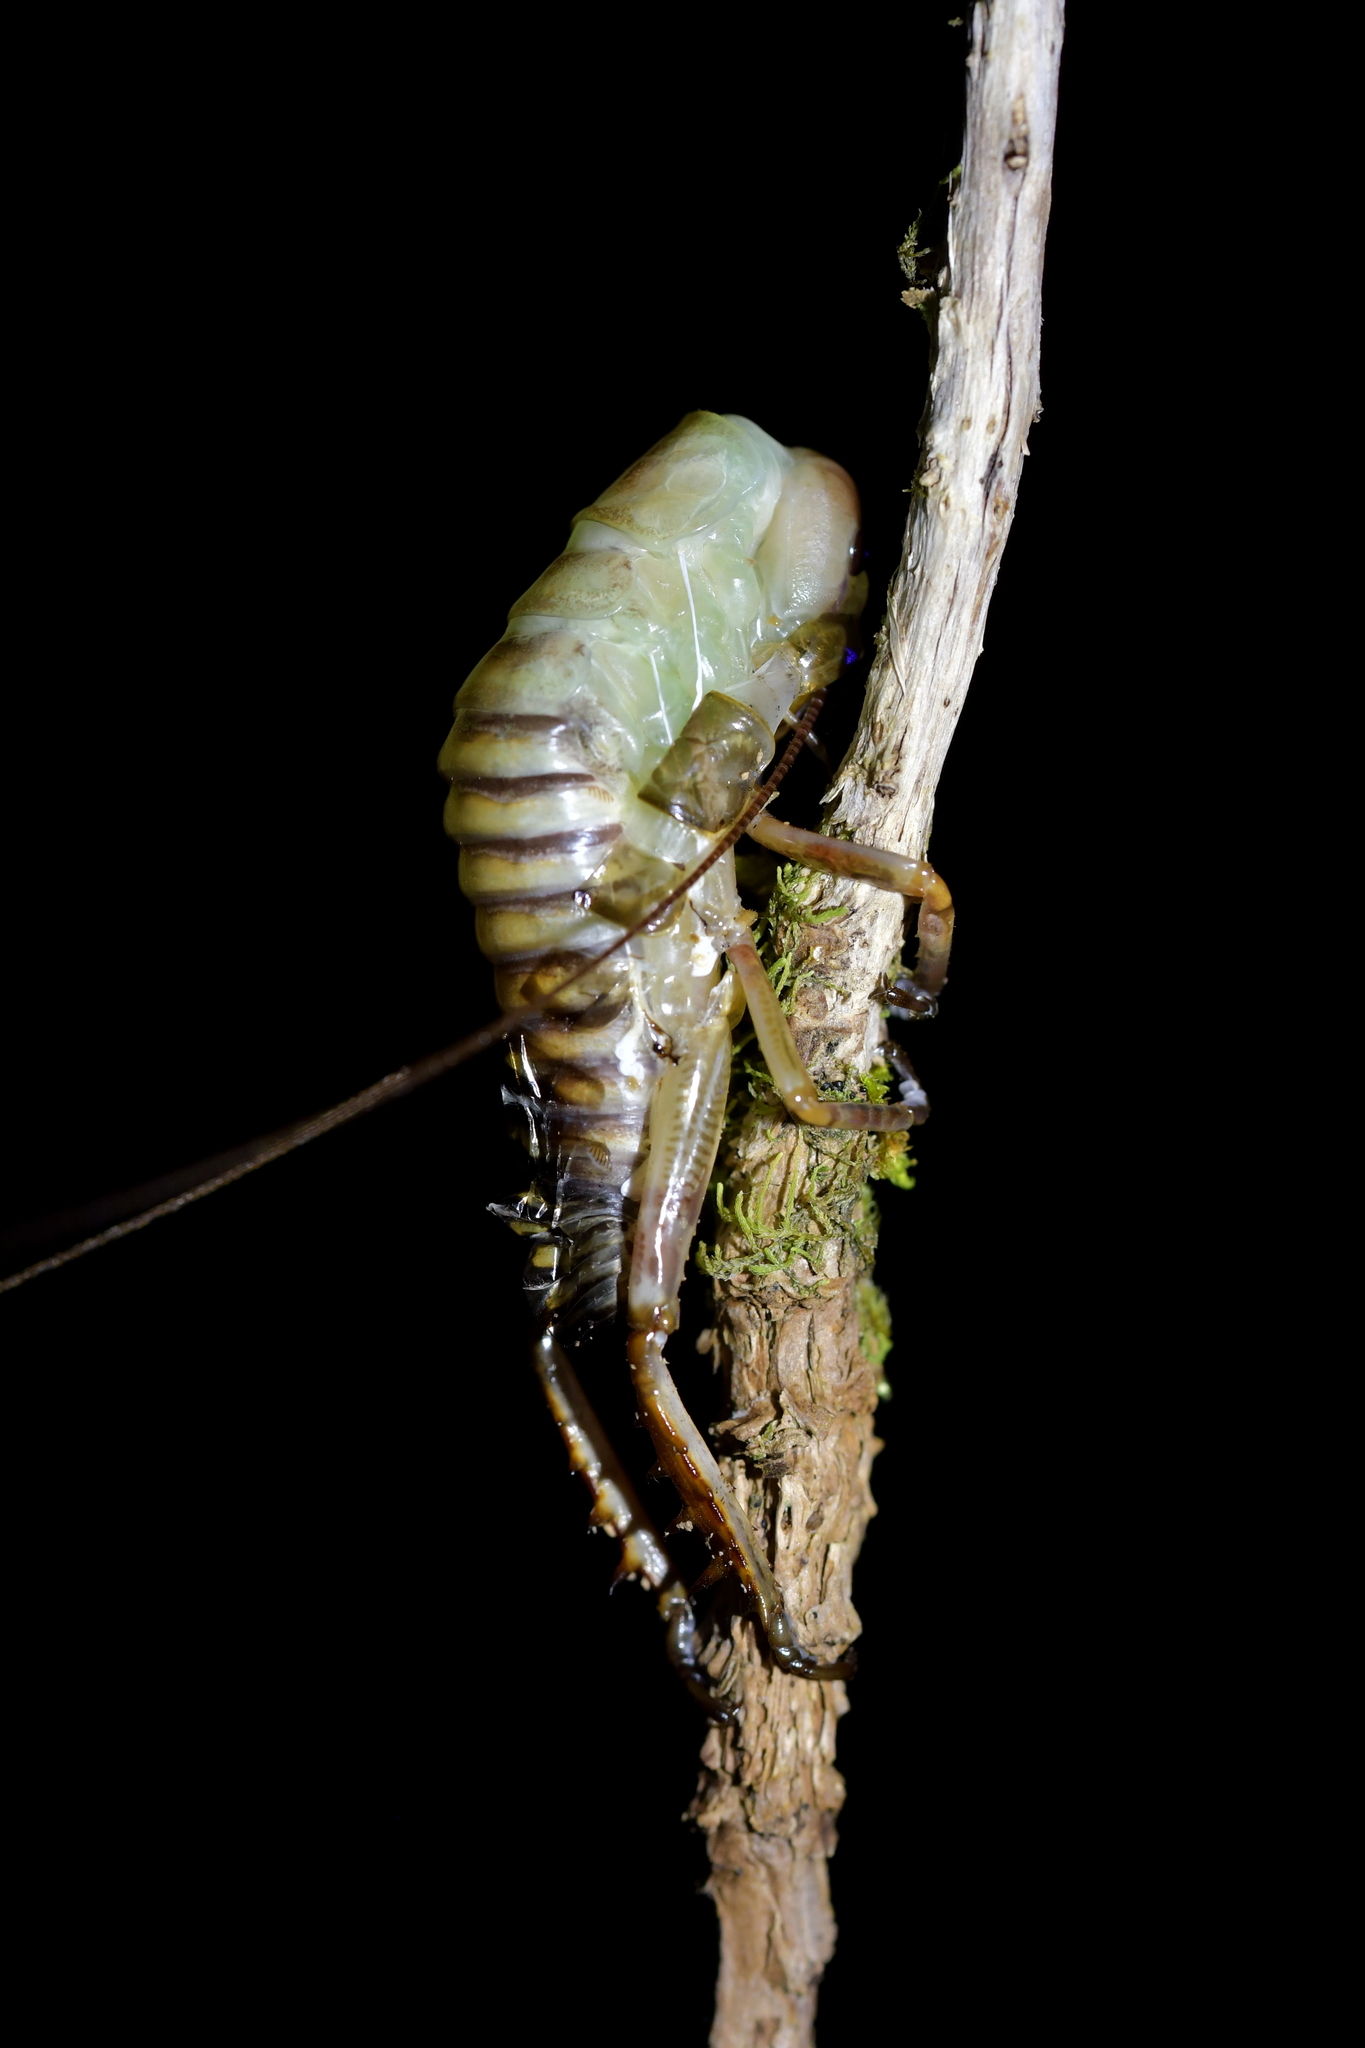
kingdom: Animalia
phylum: Arthropoda
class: Insecta
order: Orthoptera
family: Anostostomatidae
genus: Hemideina
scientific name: Hemideina crassidens
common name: Wellington tree weta
